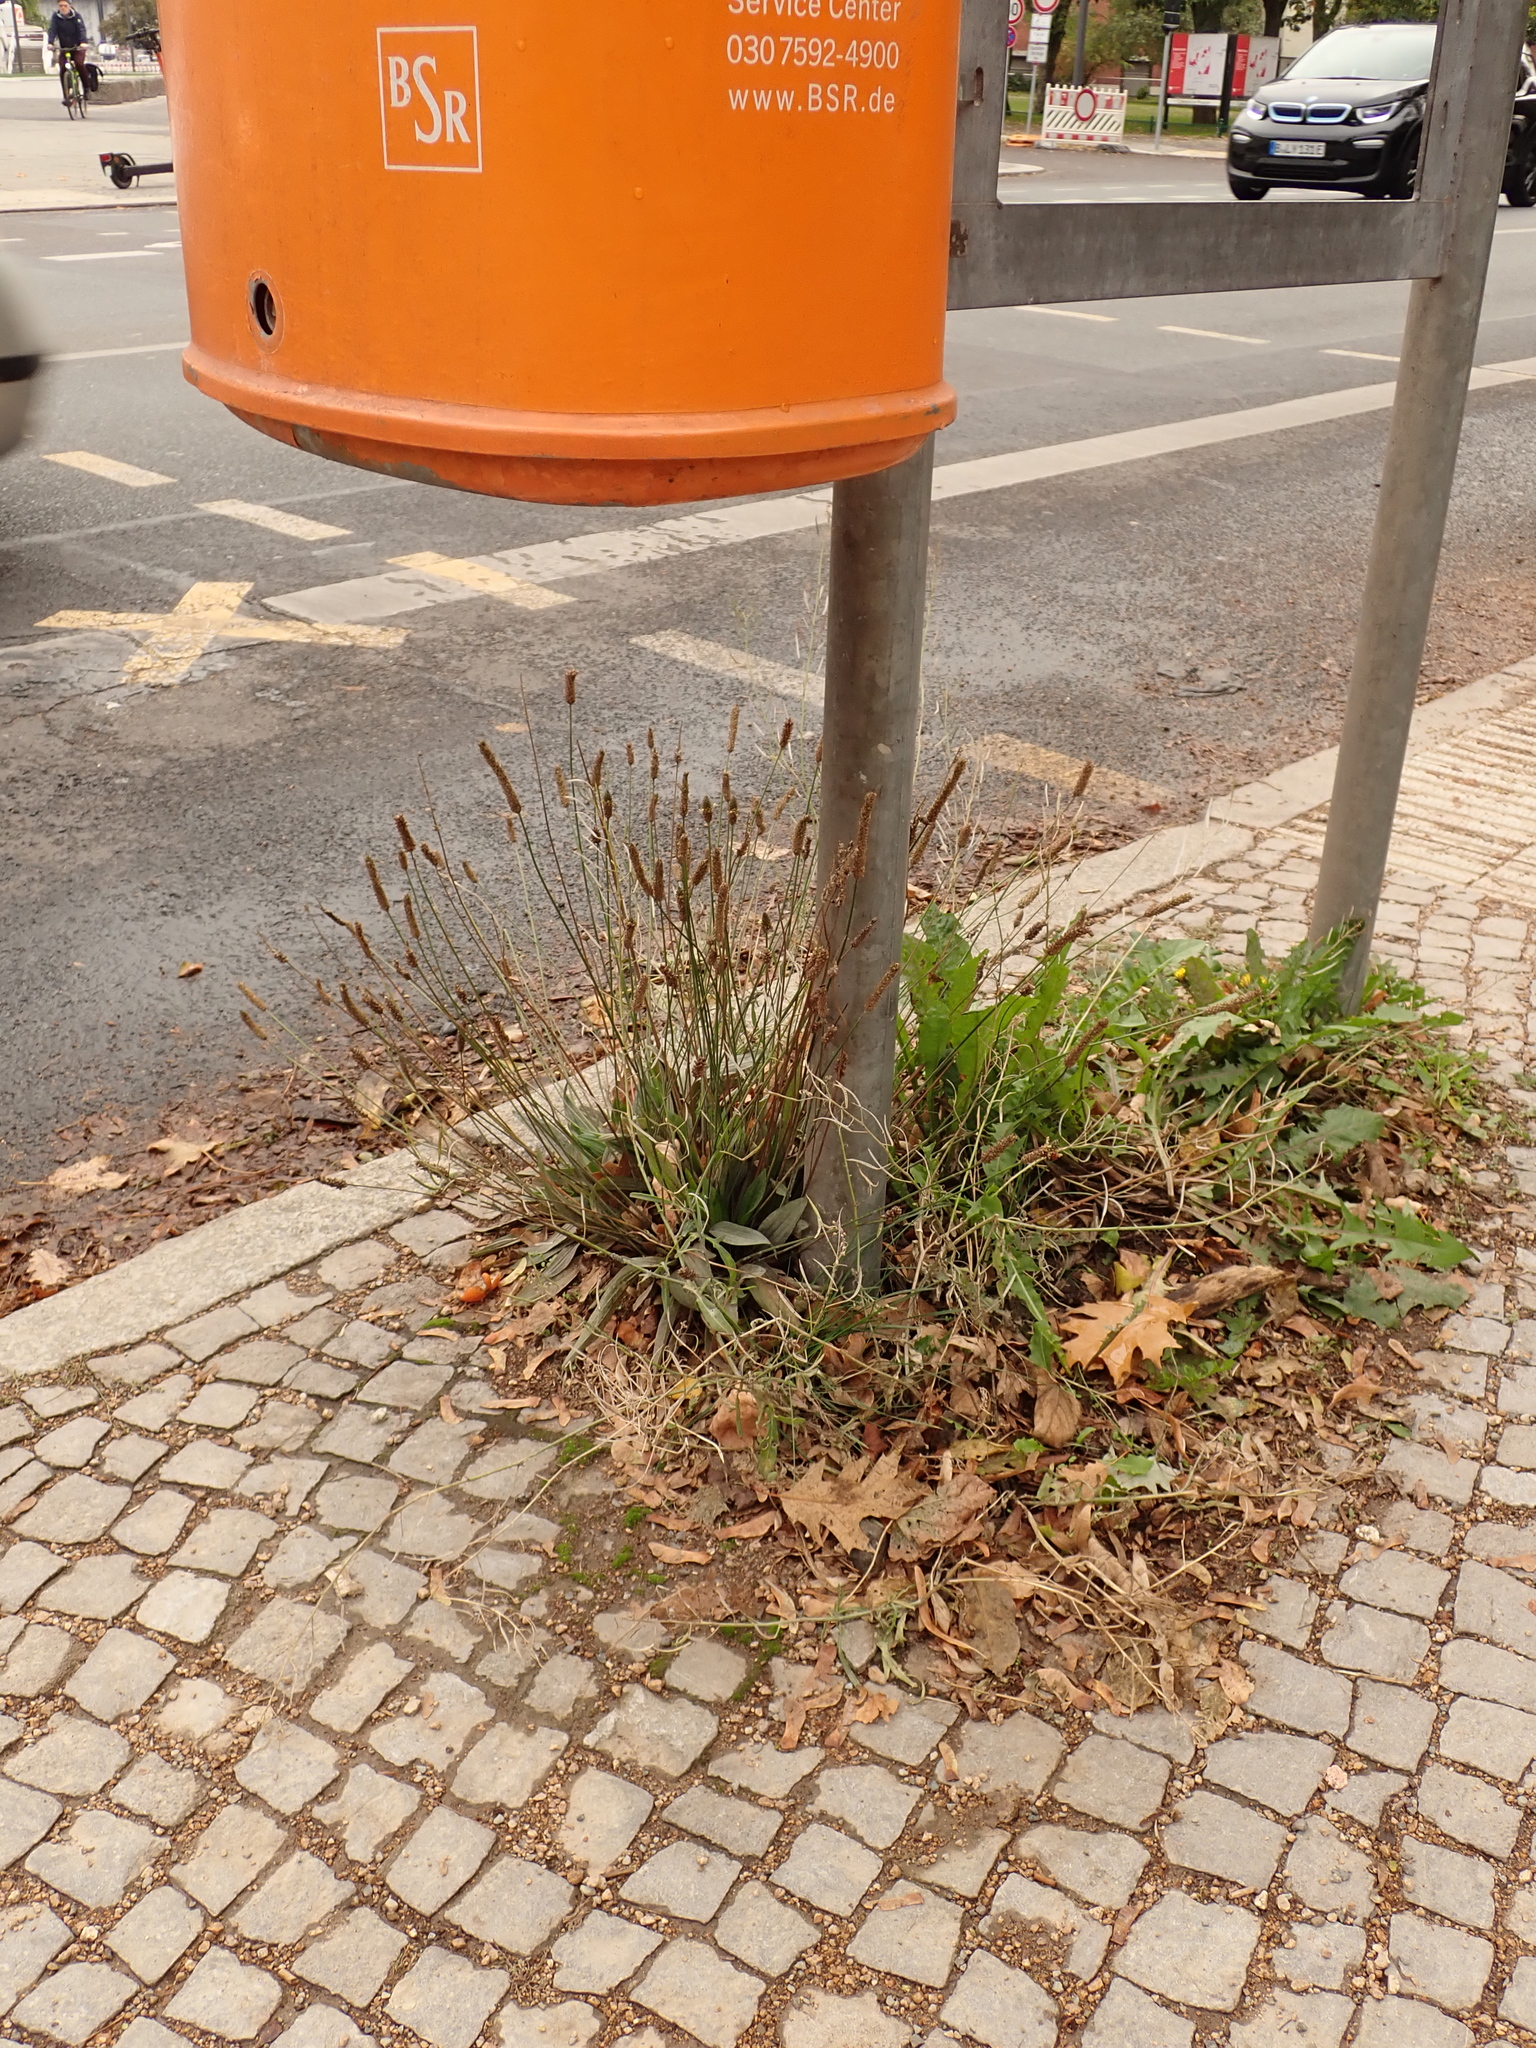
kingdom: Plantae
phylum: Tracheophyta
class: Magnoliopsida
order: Lamiales
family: Plantaginaceae
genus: Plantago
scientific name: Plantago lanceolata
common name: Ribwort plantain
